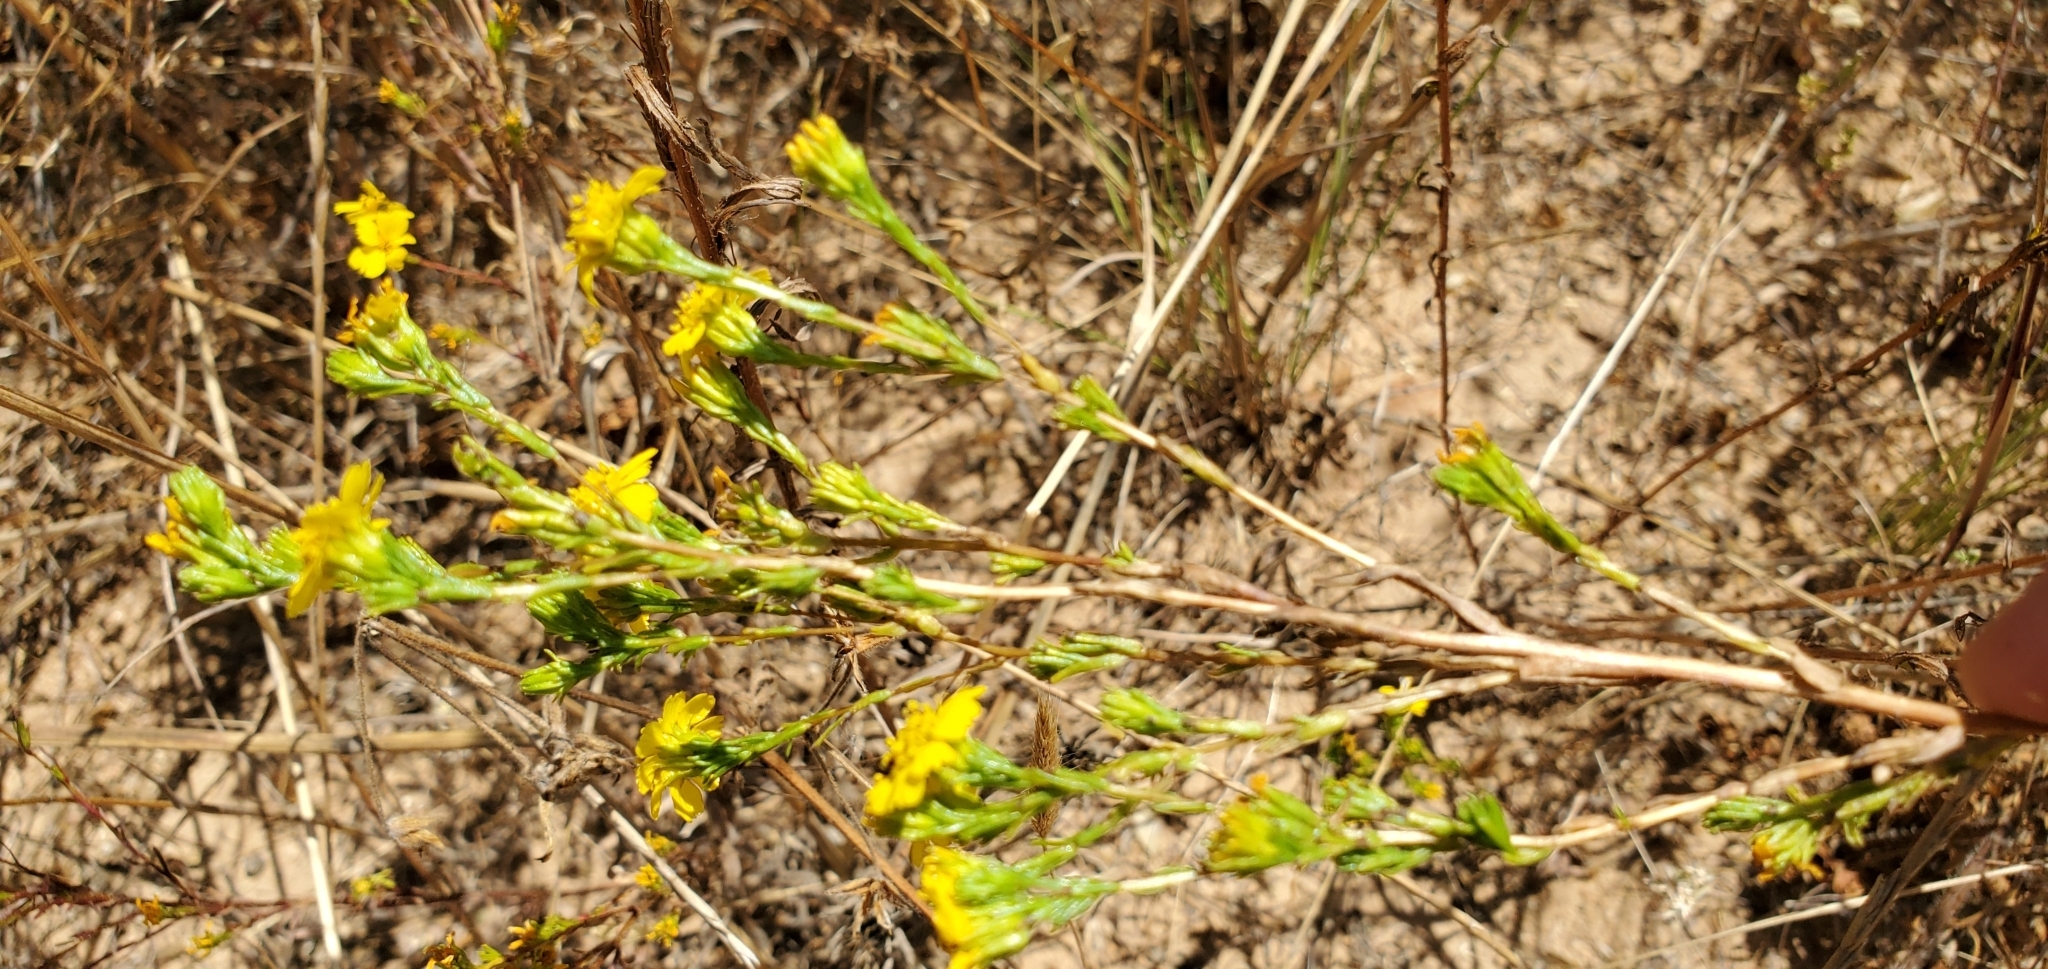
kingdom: Plantae
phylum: Tracheophyta
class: Magnoliopsida
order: Asterales
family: Asteraceae
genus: Deinandra
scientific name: Deinandra paniculata
